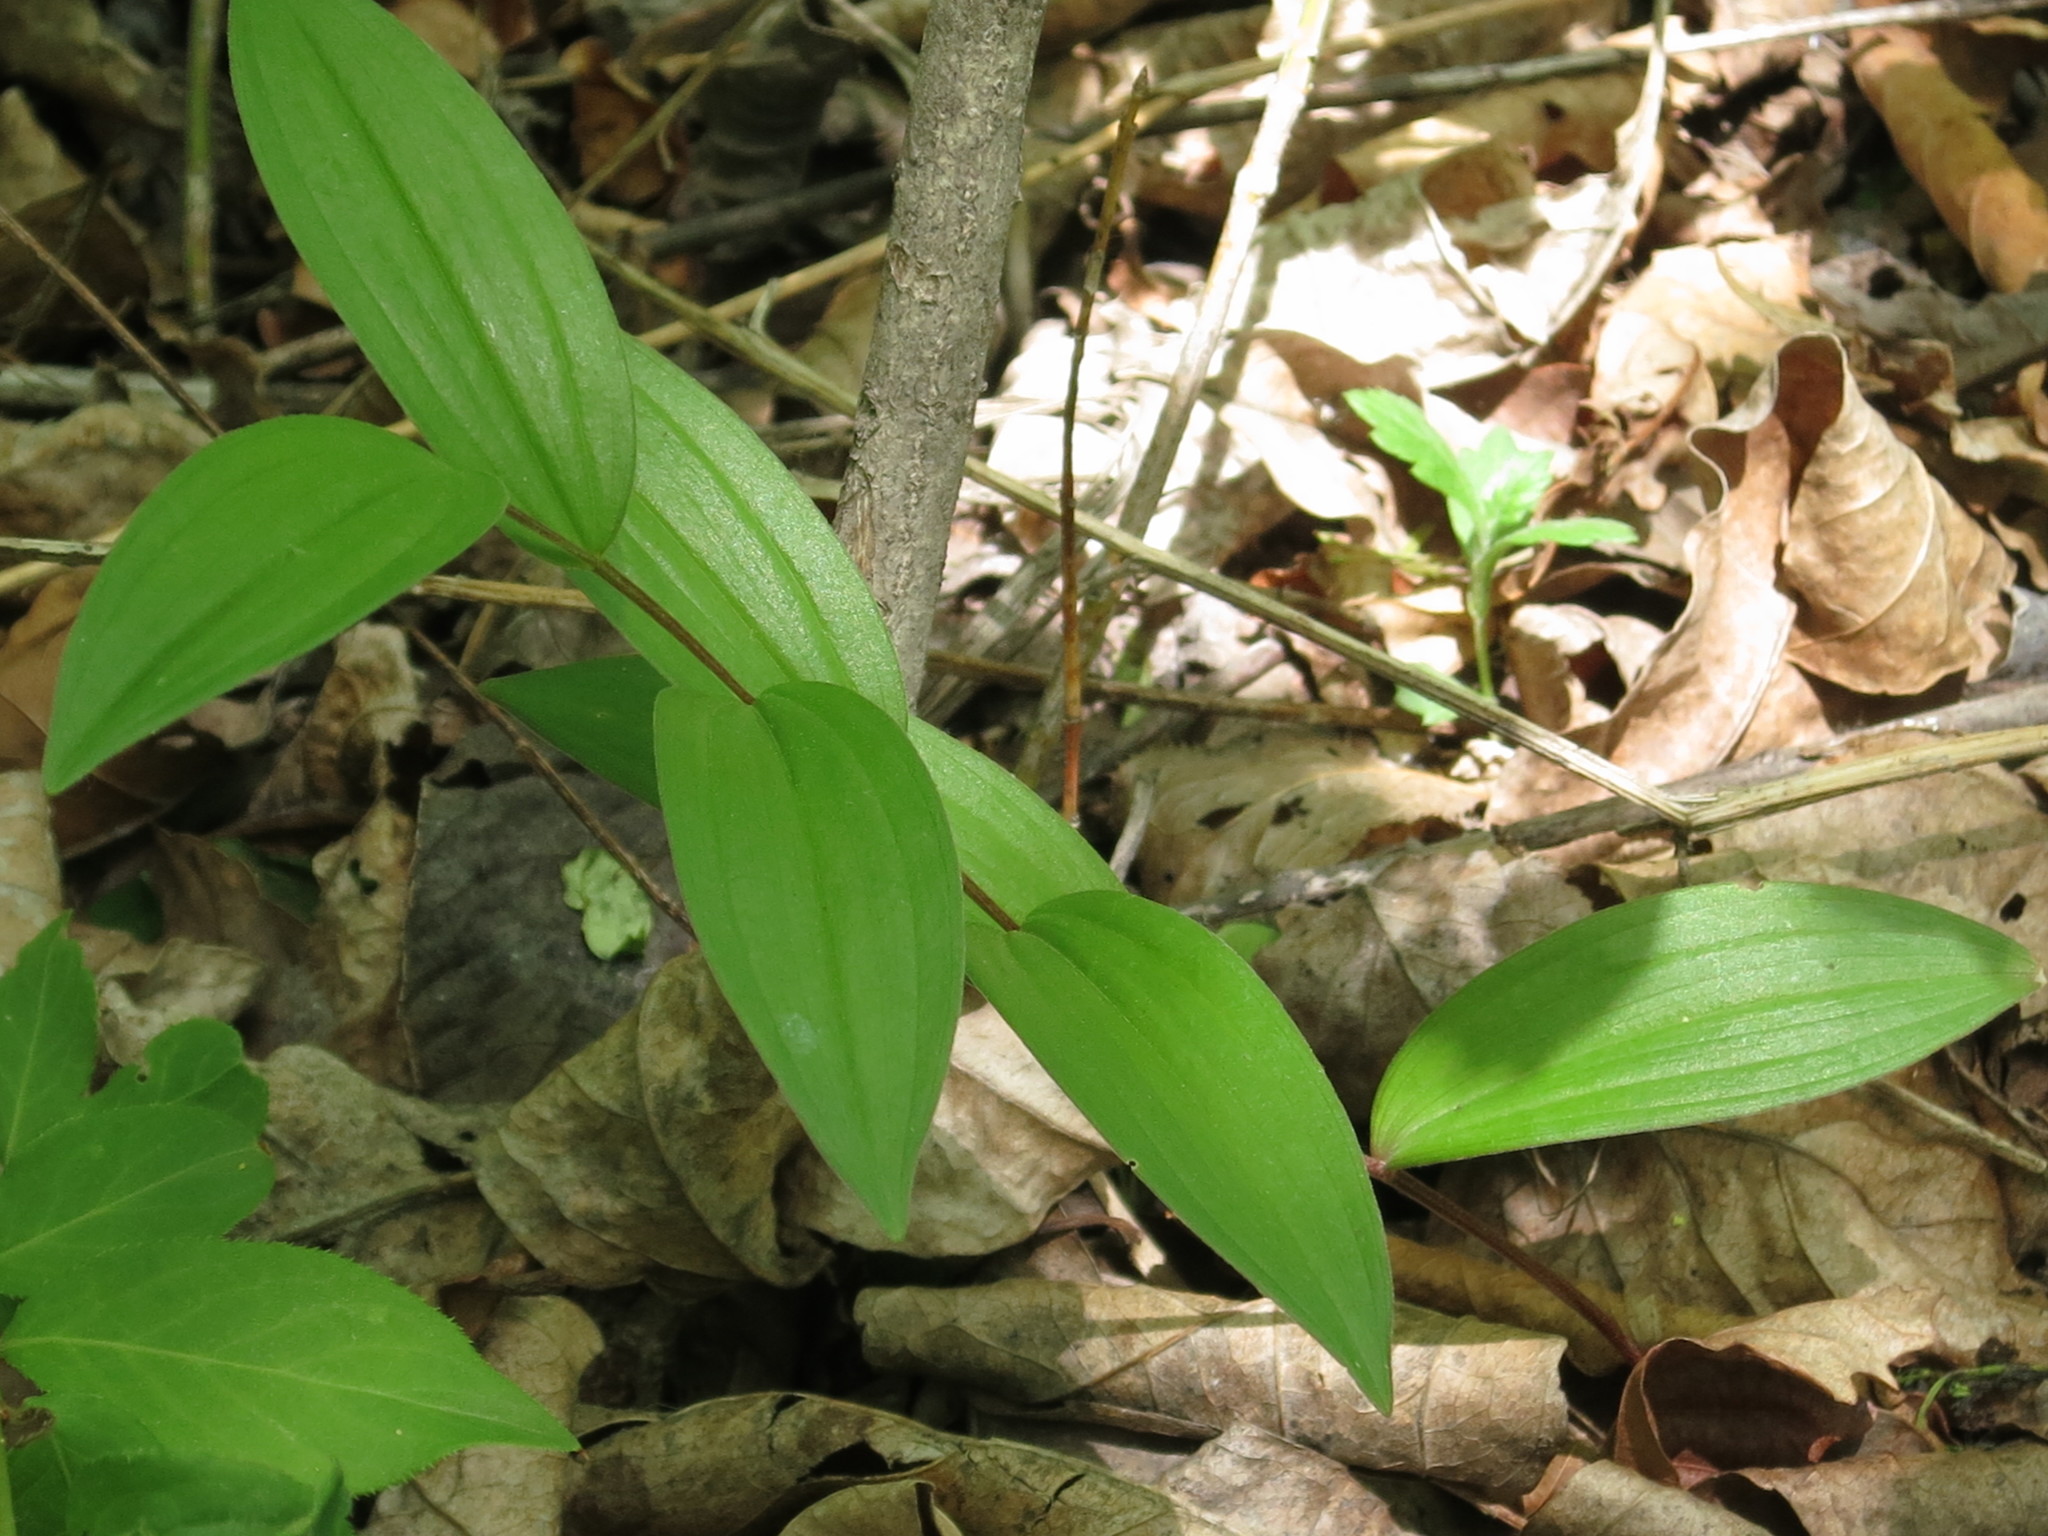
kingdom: Plantae
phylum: Tracheophyta
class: Liliopsida
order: Asparagales
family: Asparagaceae
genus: Polygonatum
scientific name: Polygonatum humile
